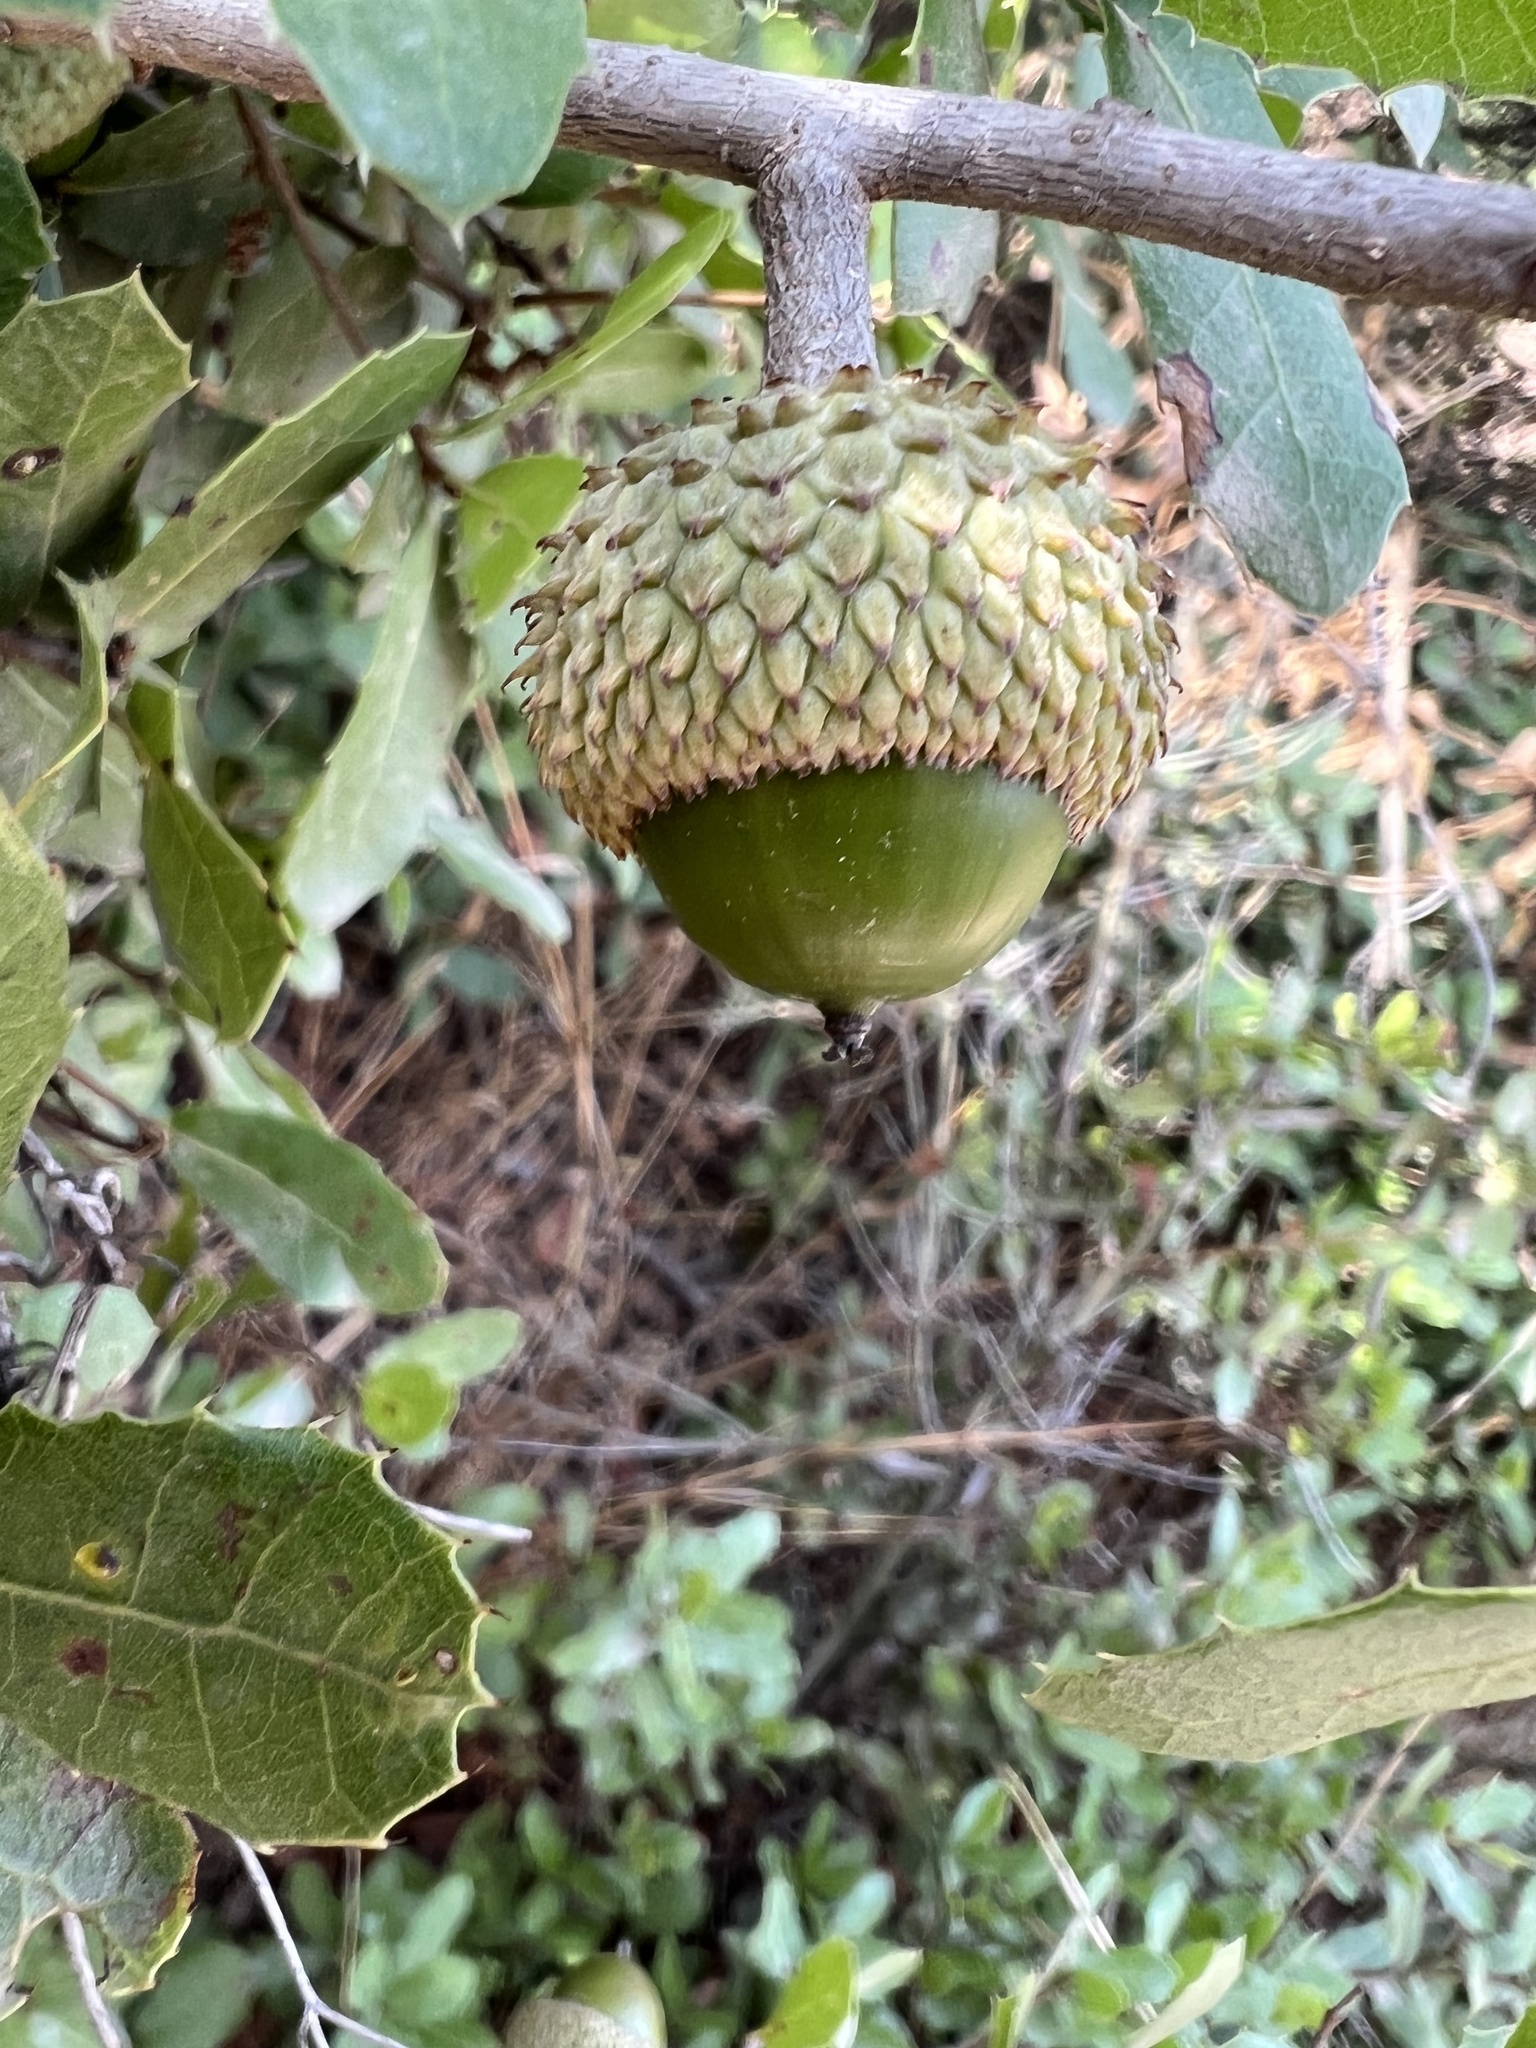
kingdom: Plantae
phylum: Tracheophyta
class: Magnoliopsida
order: Fagales
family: Fagaceae
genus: Quercus
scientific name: Quercus coccifera
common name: Kermes oak
